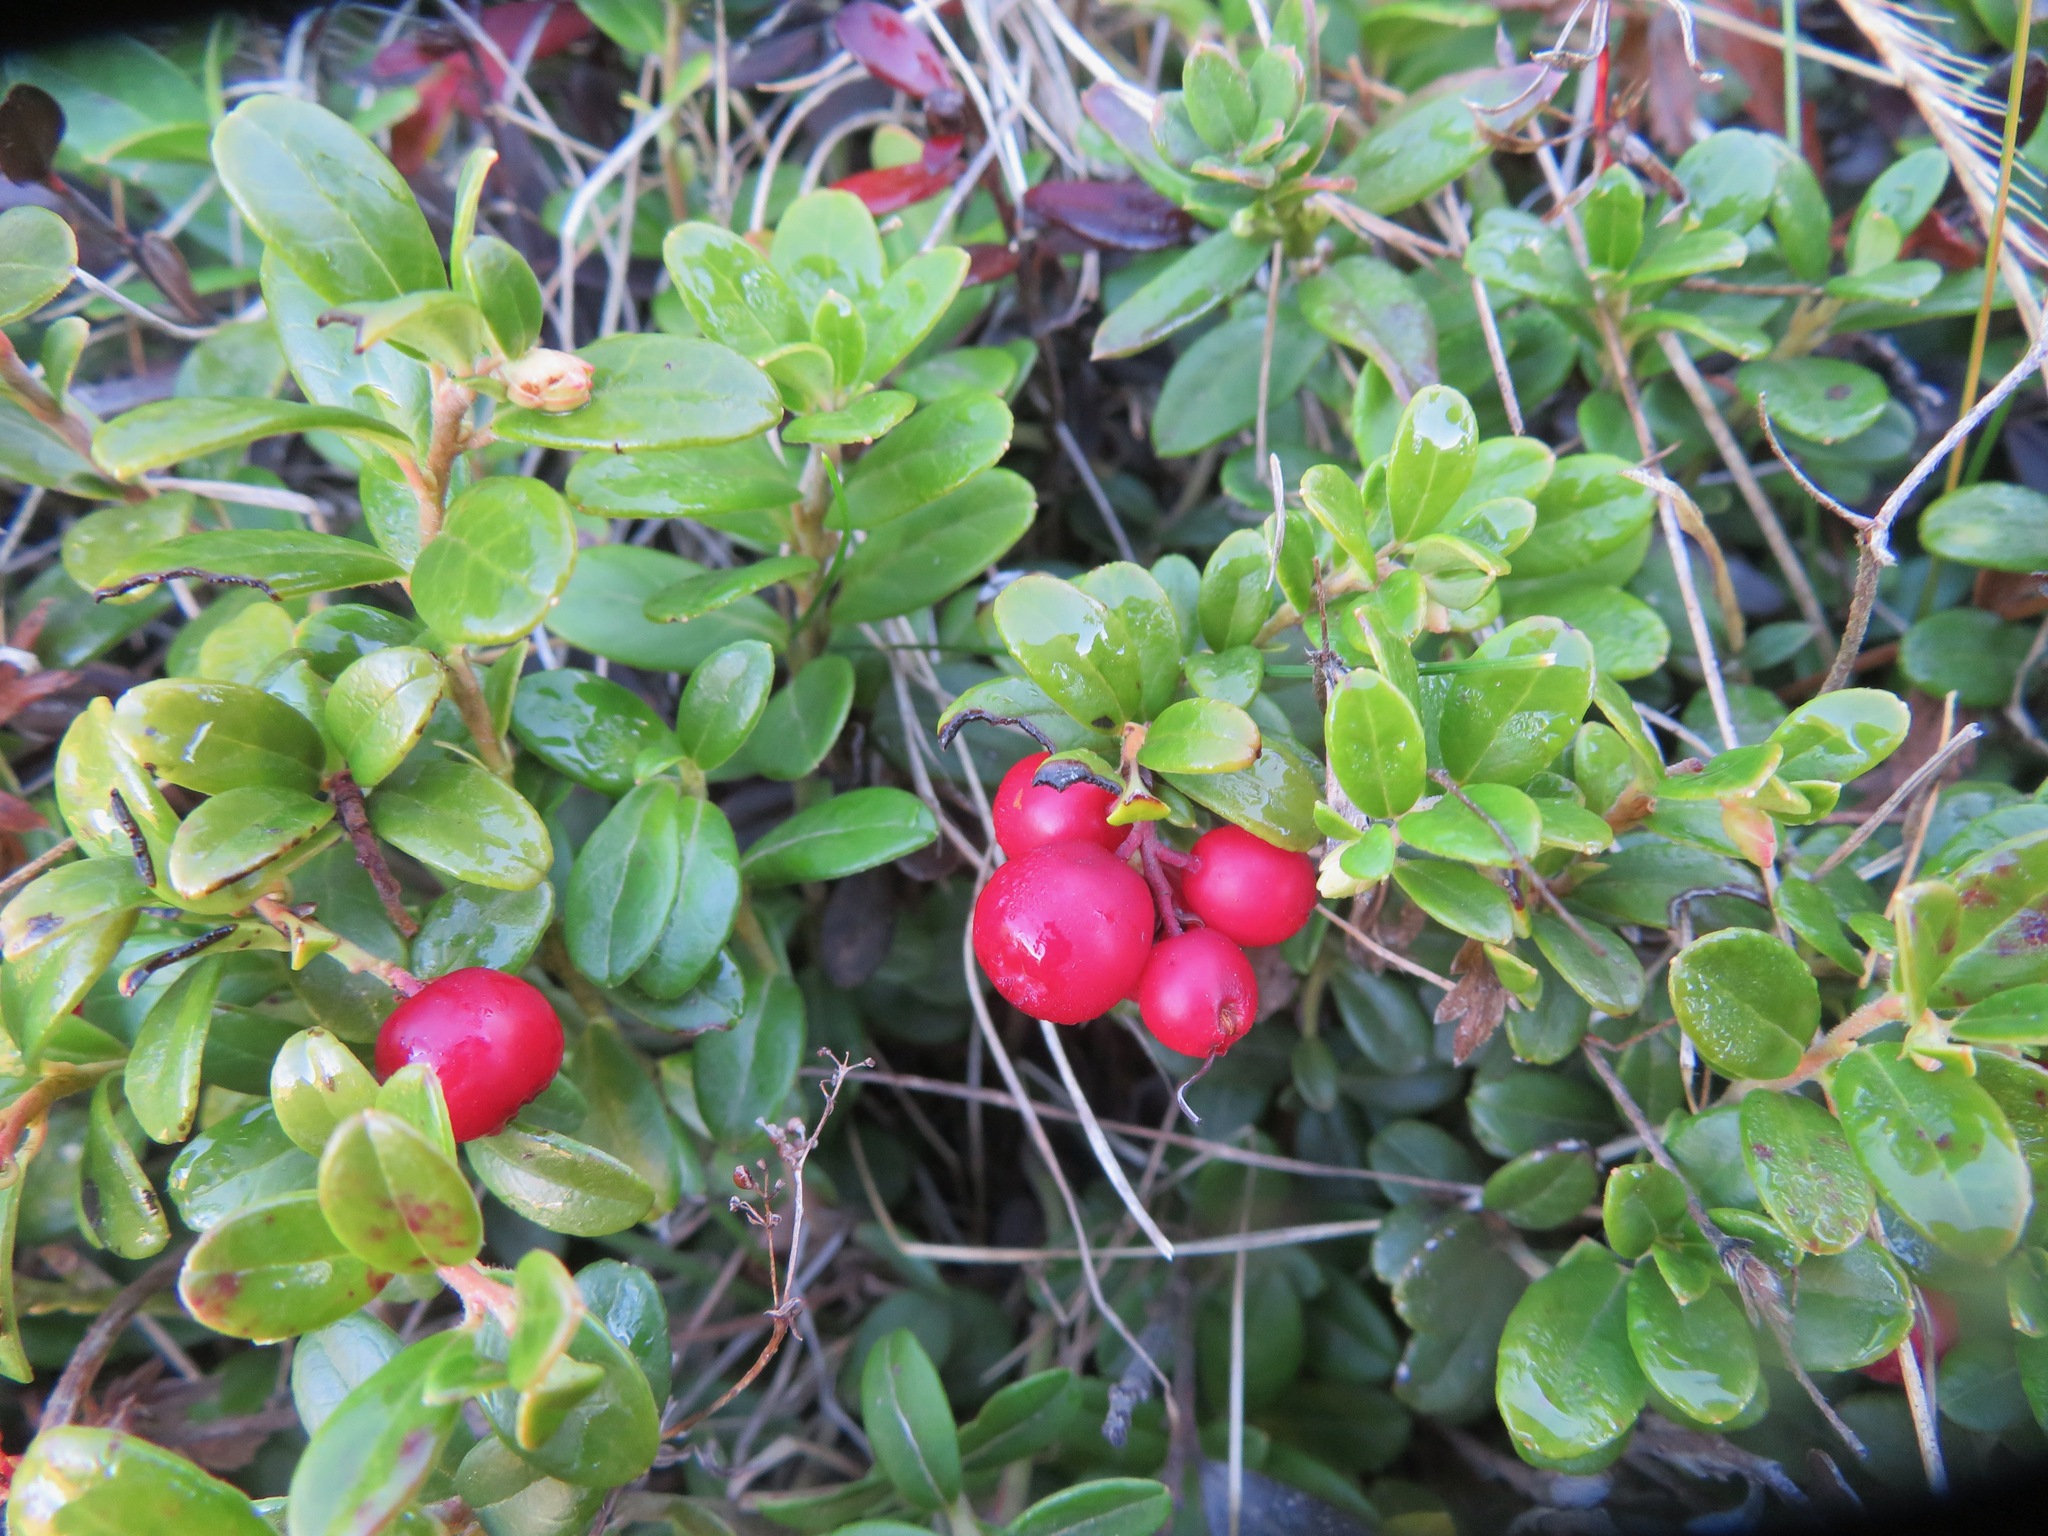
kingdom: Plantae
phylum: Tracheophyta
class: Magnoliopsida
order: Ericales
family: Ericaceae
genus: Vaccinium
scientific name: Vaccinium vitis-idaea
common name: Cowberry
